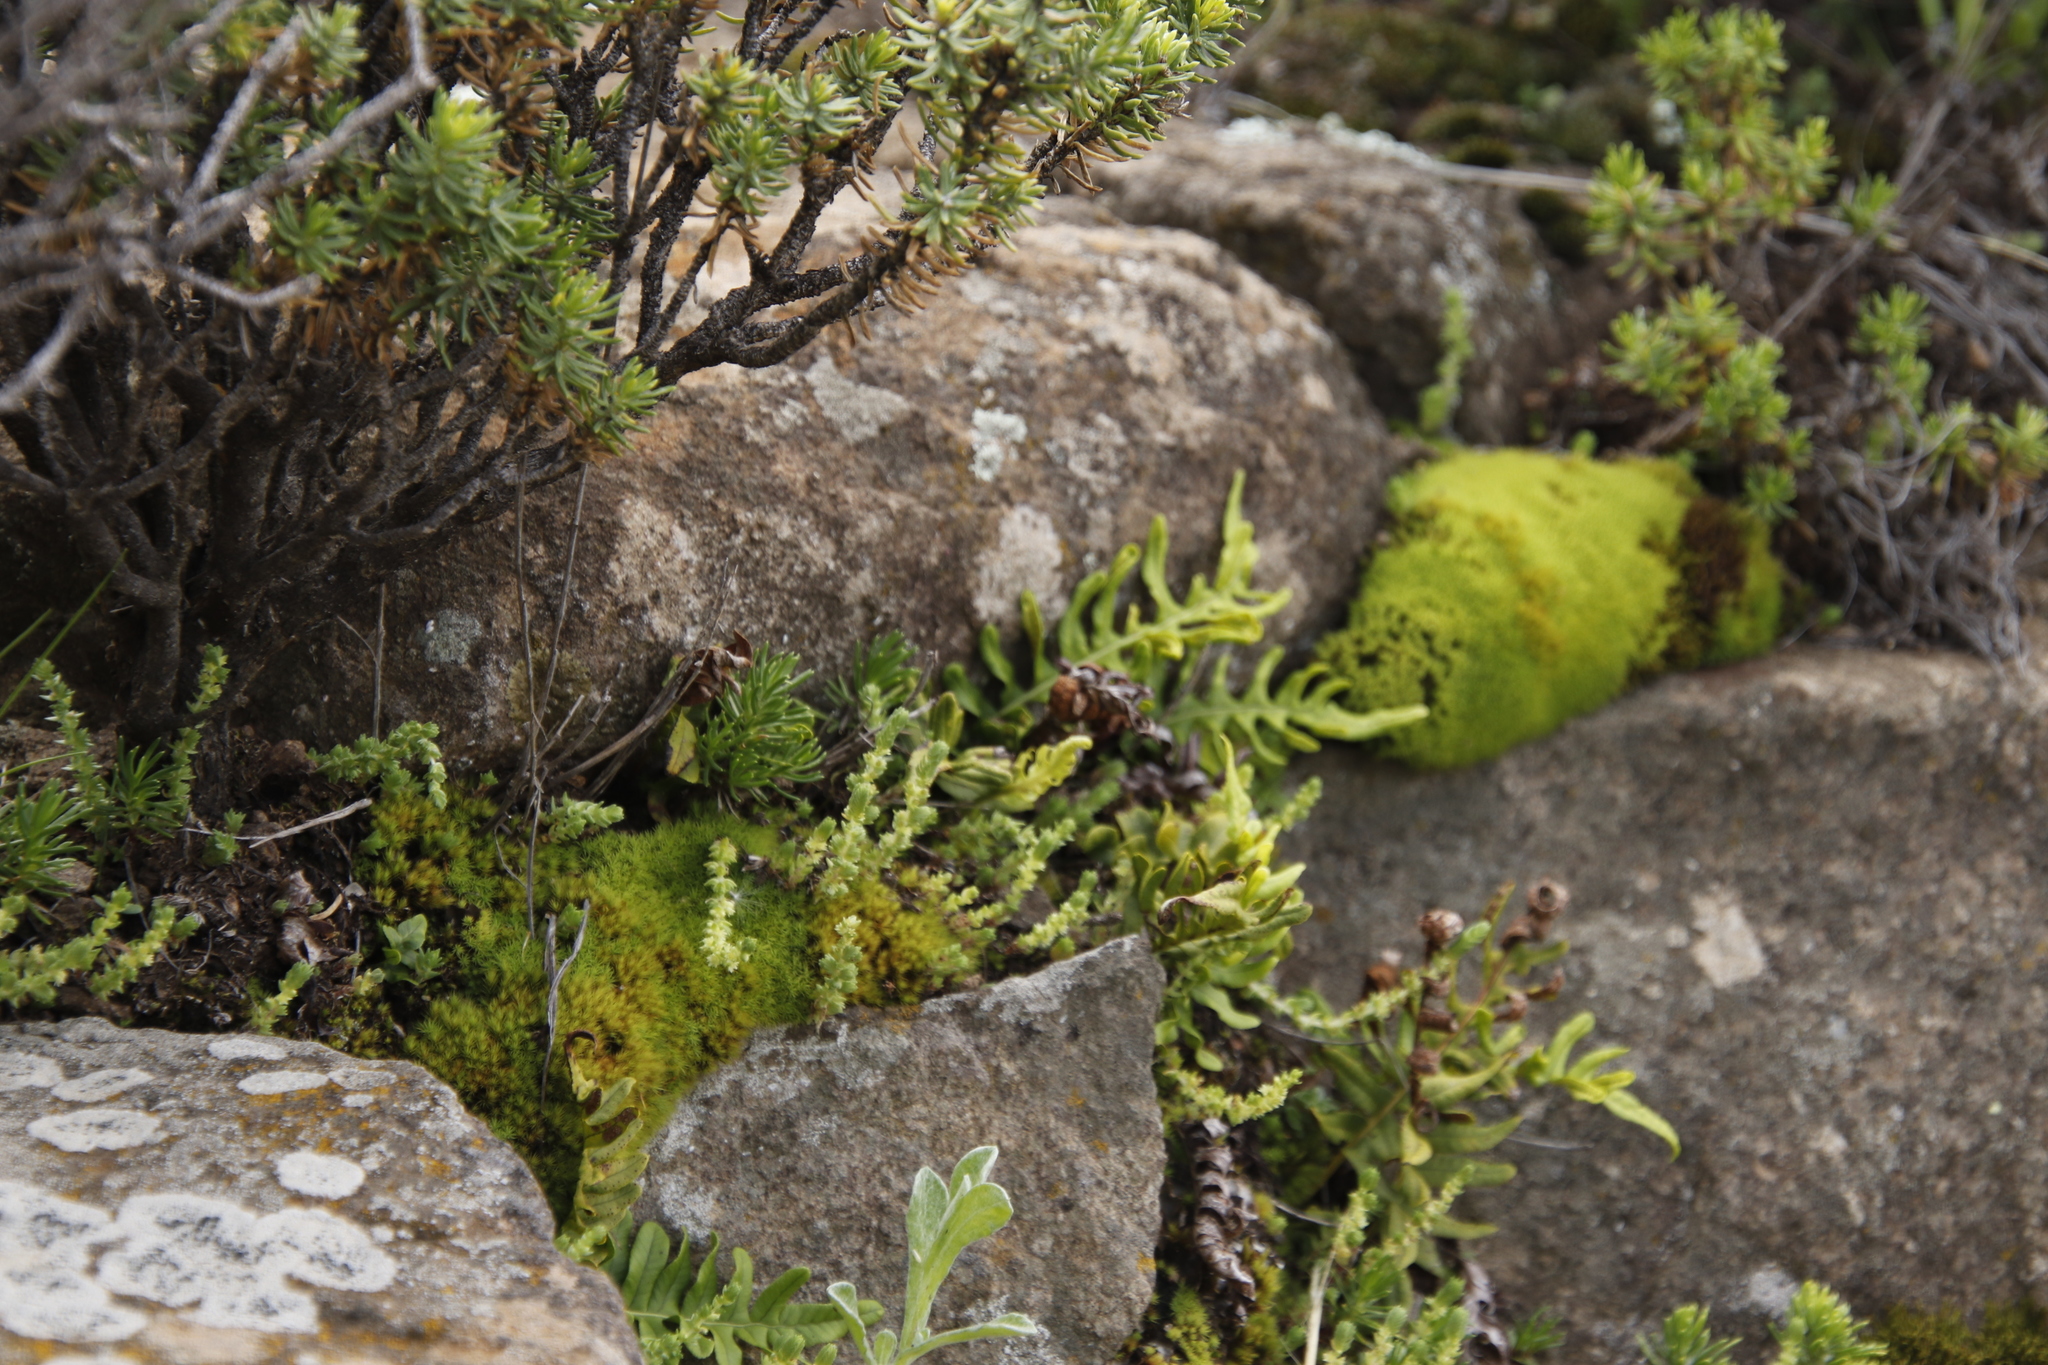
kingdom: Plantae
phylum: Tracheophyta
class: Polypodiopsida
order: Polypodiales
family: Polypodiaceae
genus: Polypodium
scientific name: Polypodium vulgare
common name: Common polypody
